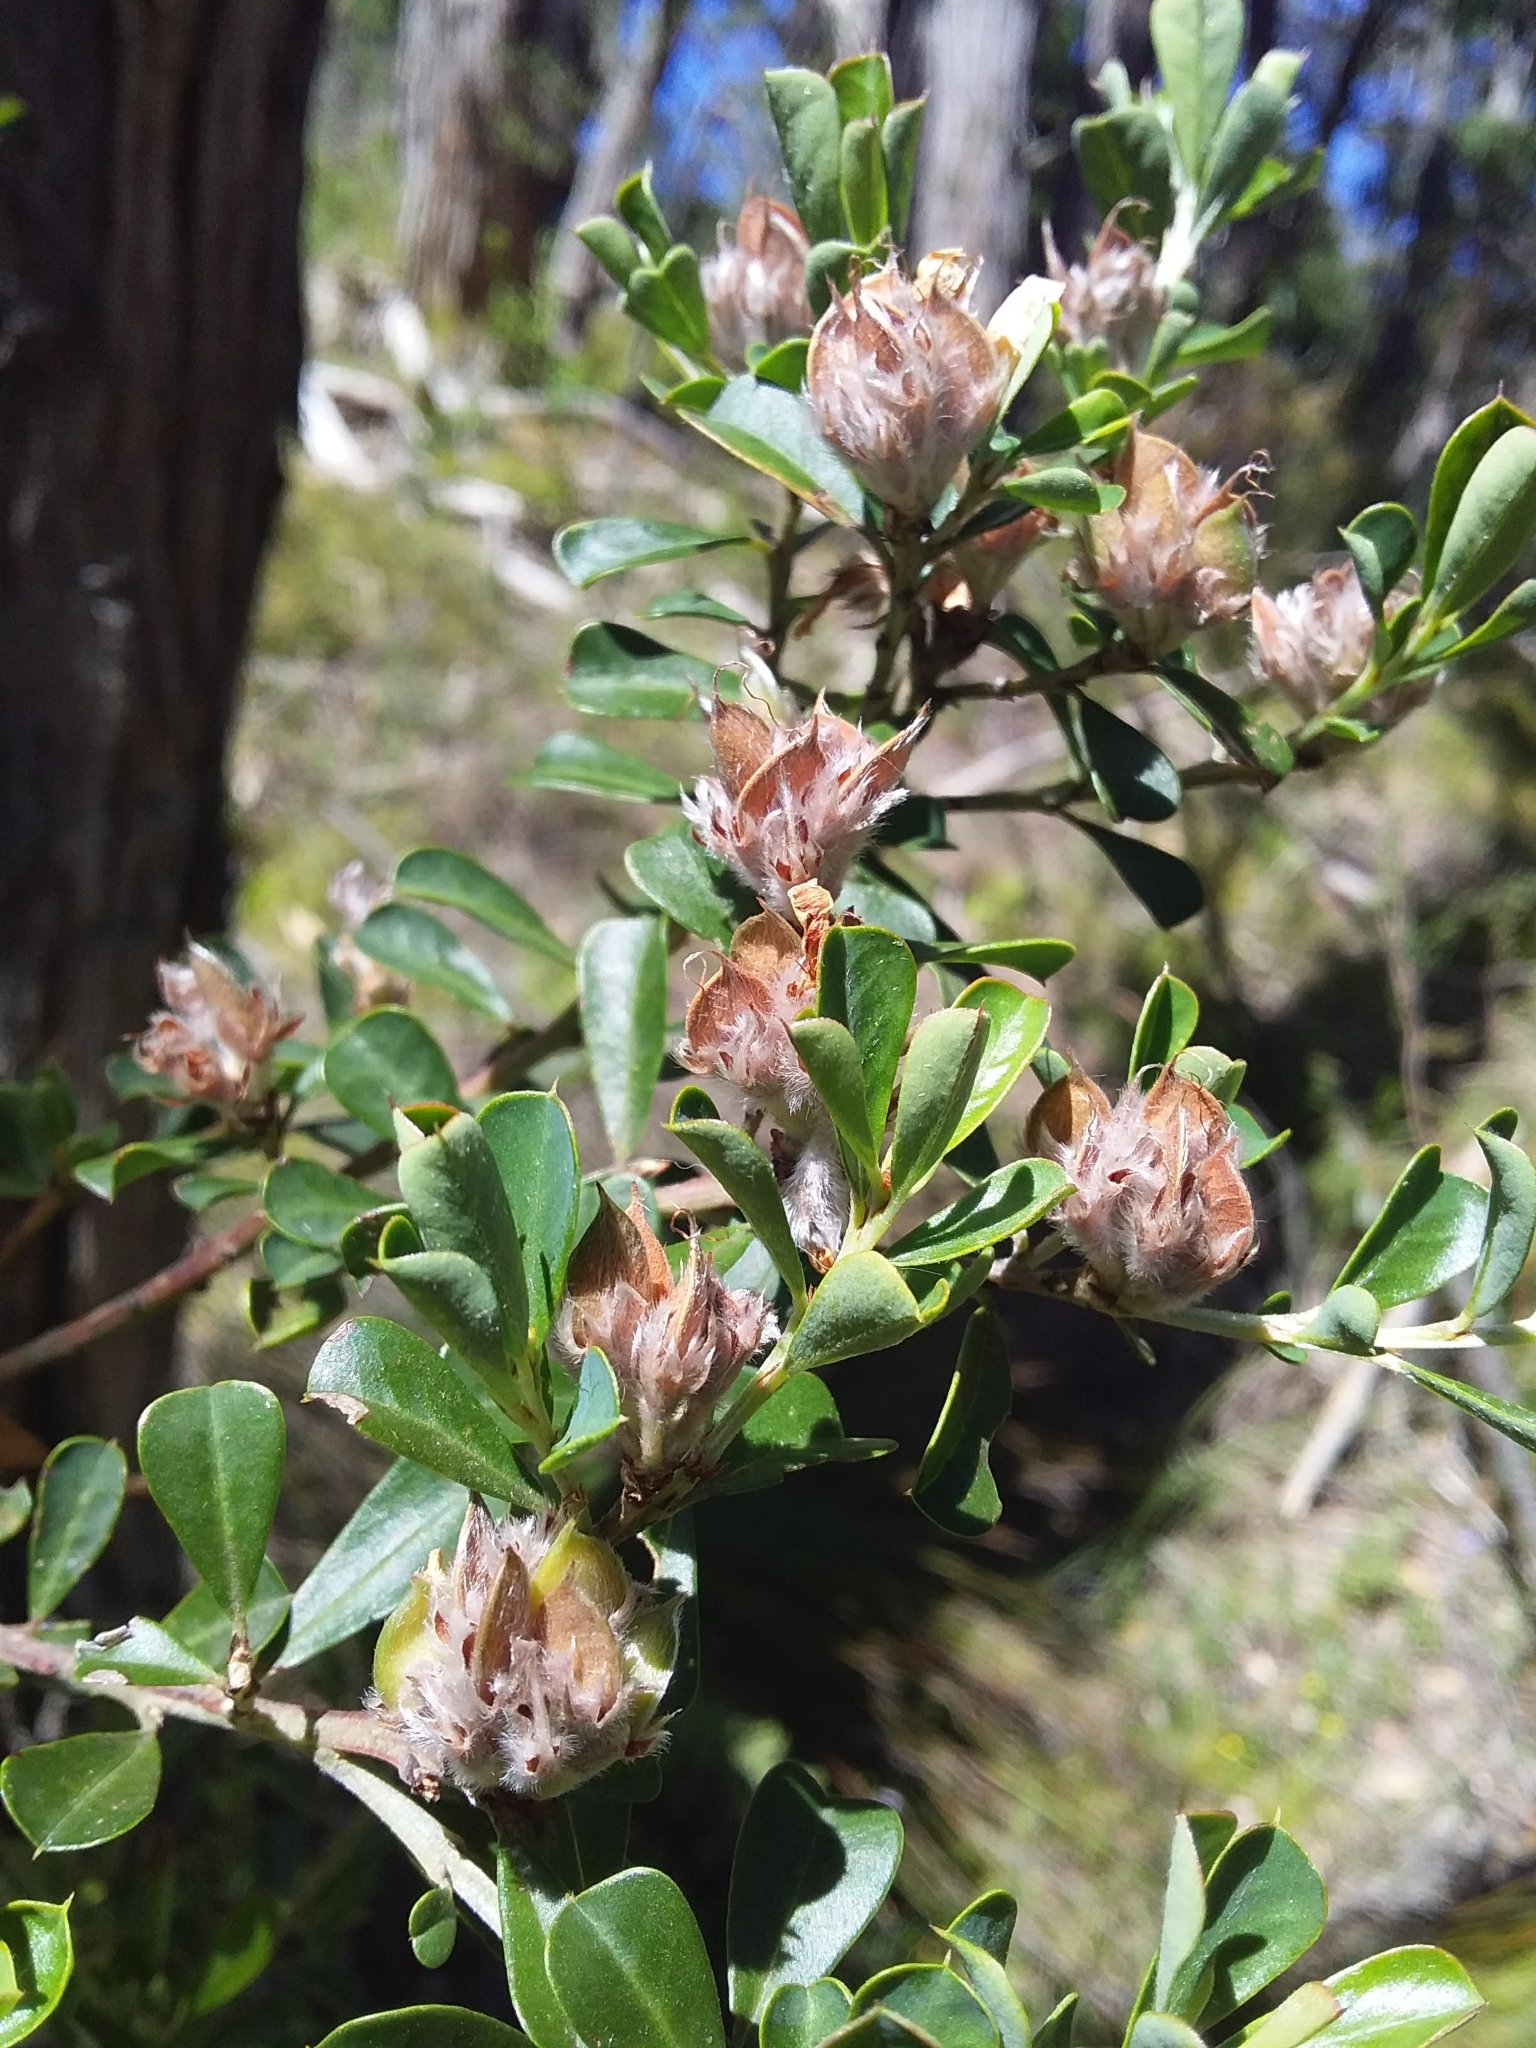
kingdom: Plantae
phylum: Tracheophyta
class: Magnoliopsida
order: Fabales
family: Fabaceae
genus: Pultenaea
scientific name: Pultenaea daphnoides
